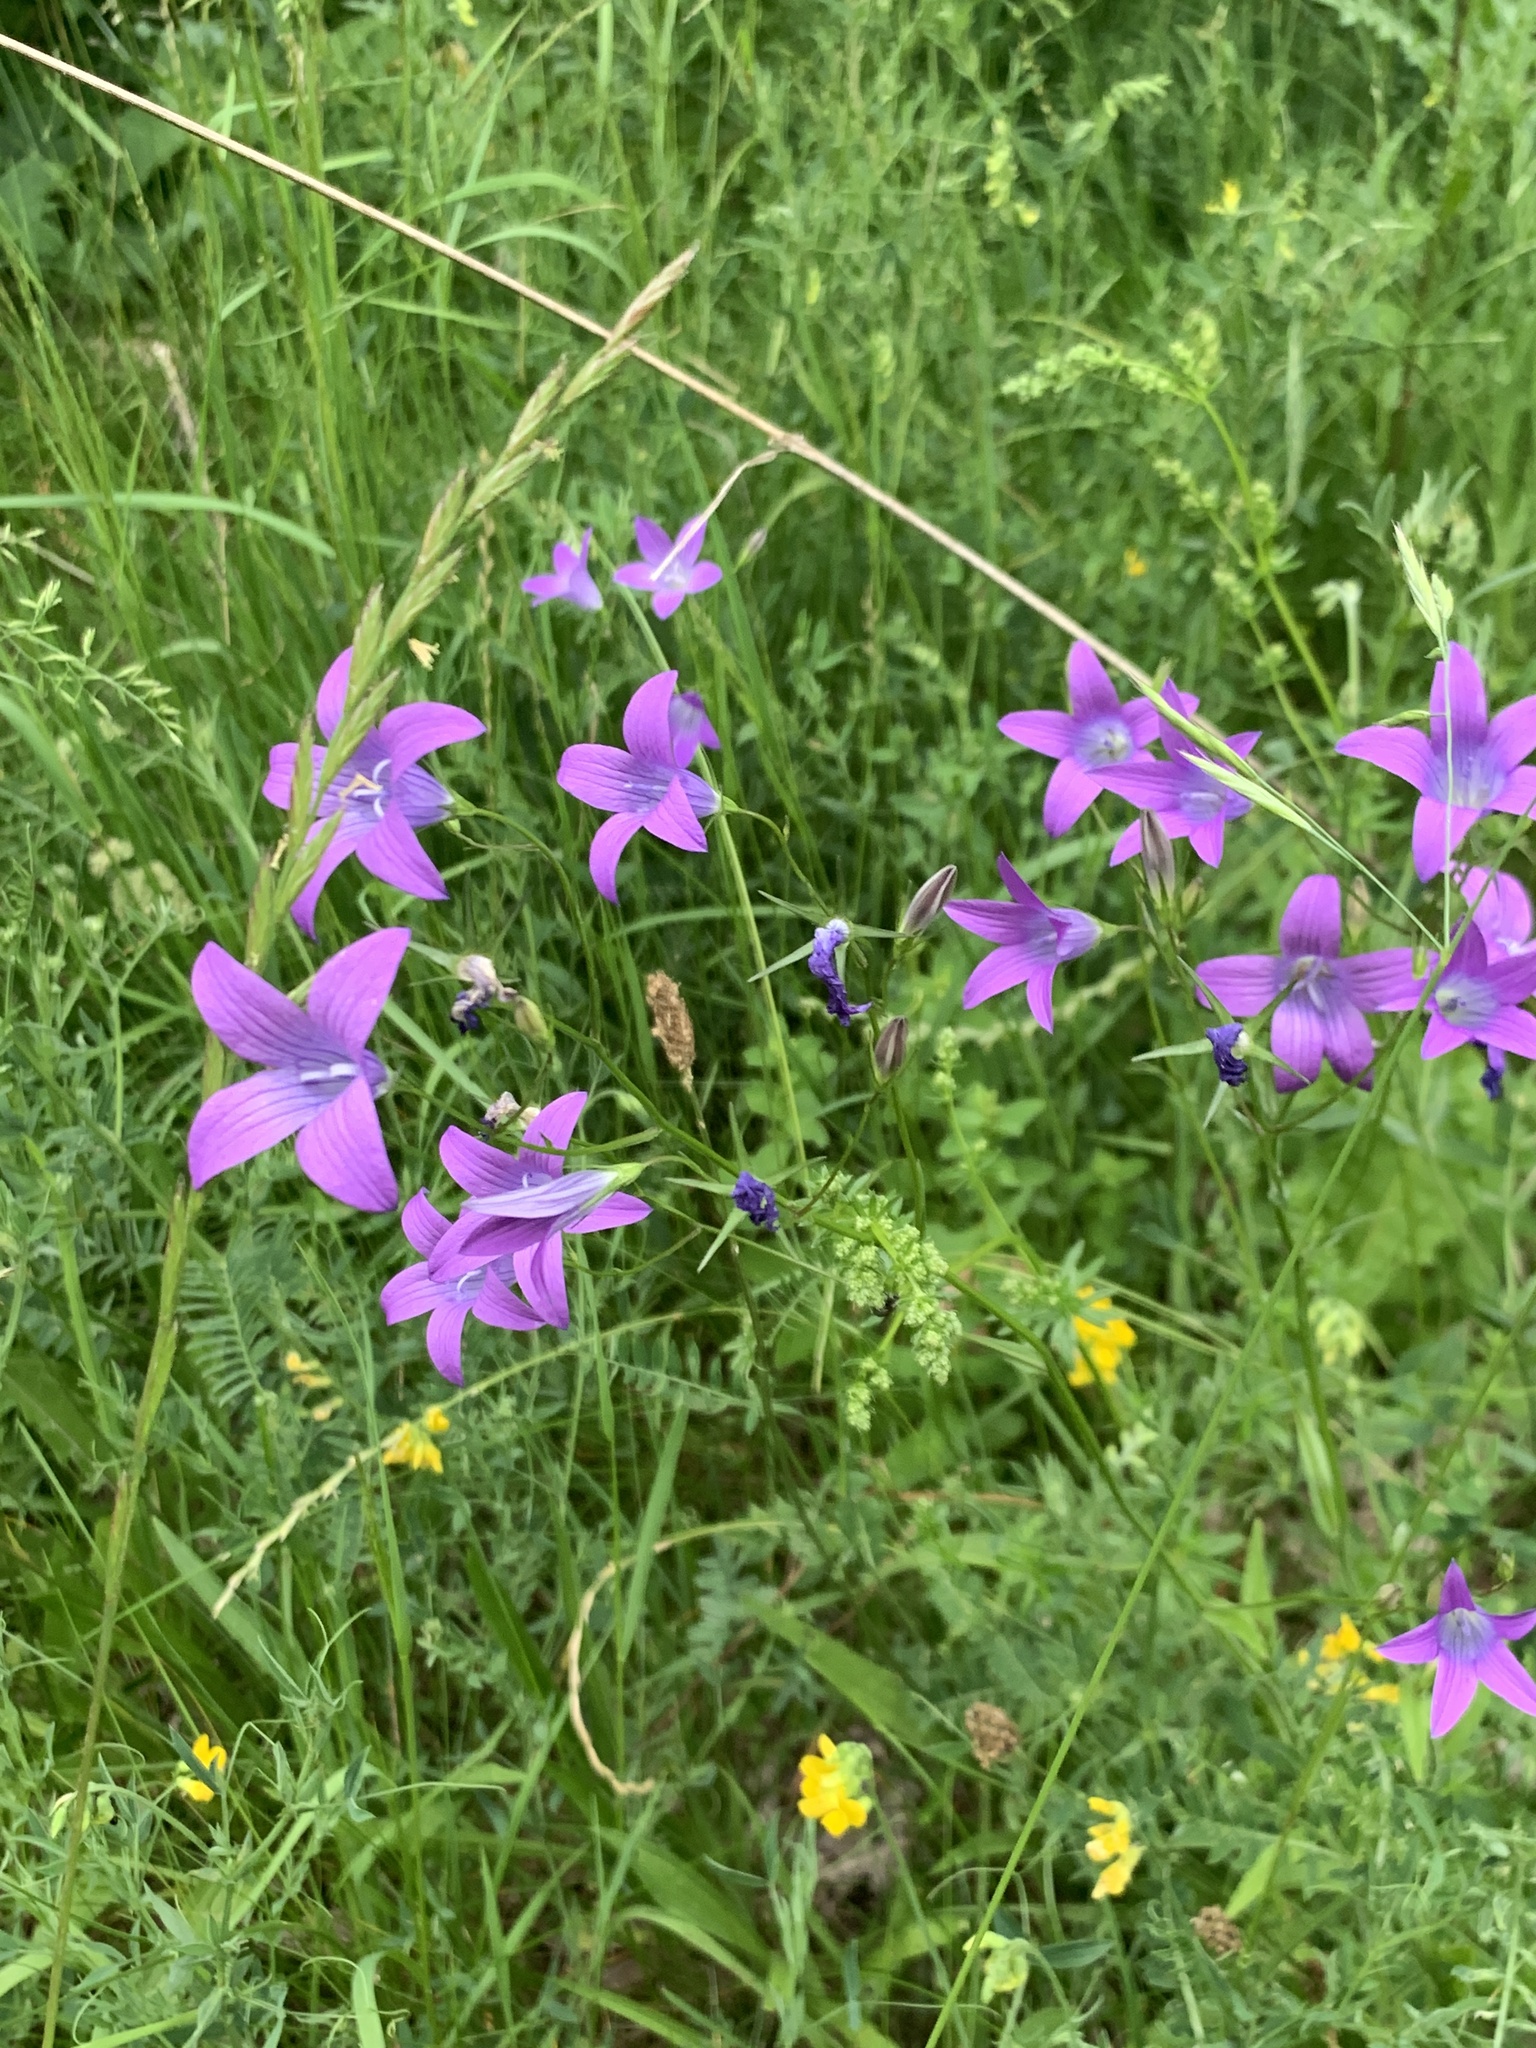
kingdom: Plantae
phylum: Tracheophyta
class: Magnoliopsida
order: Asterales
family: Campanulaceae
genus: Campanula
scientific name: Campanula patula
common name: Spreading bellflower
